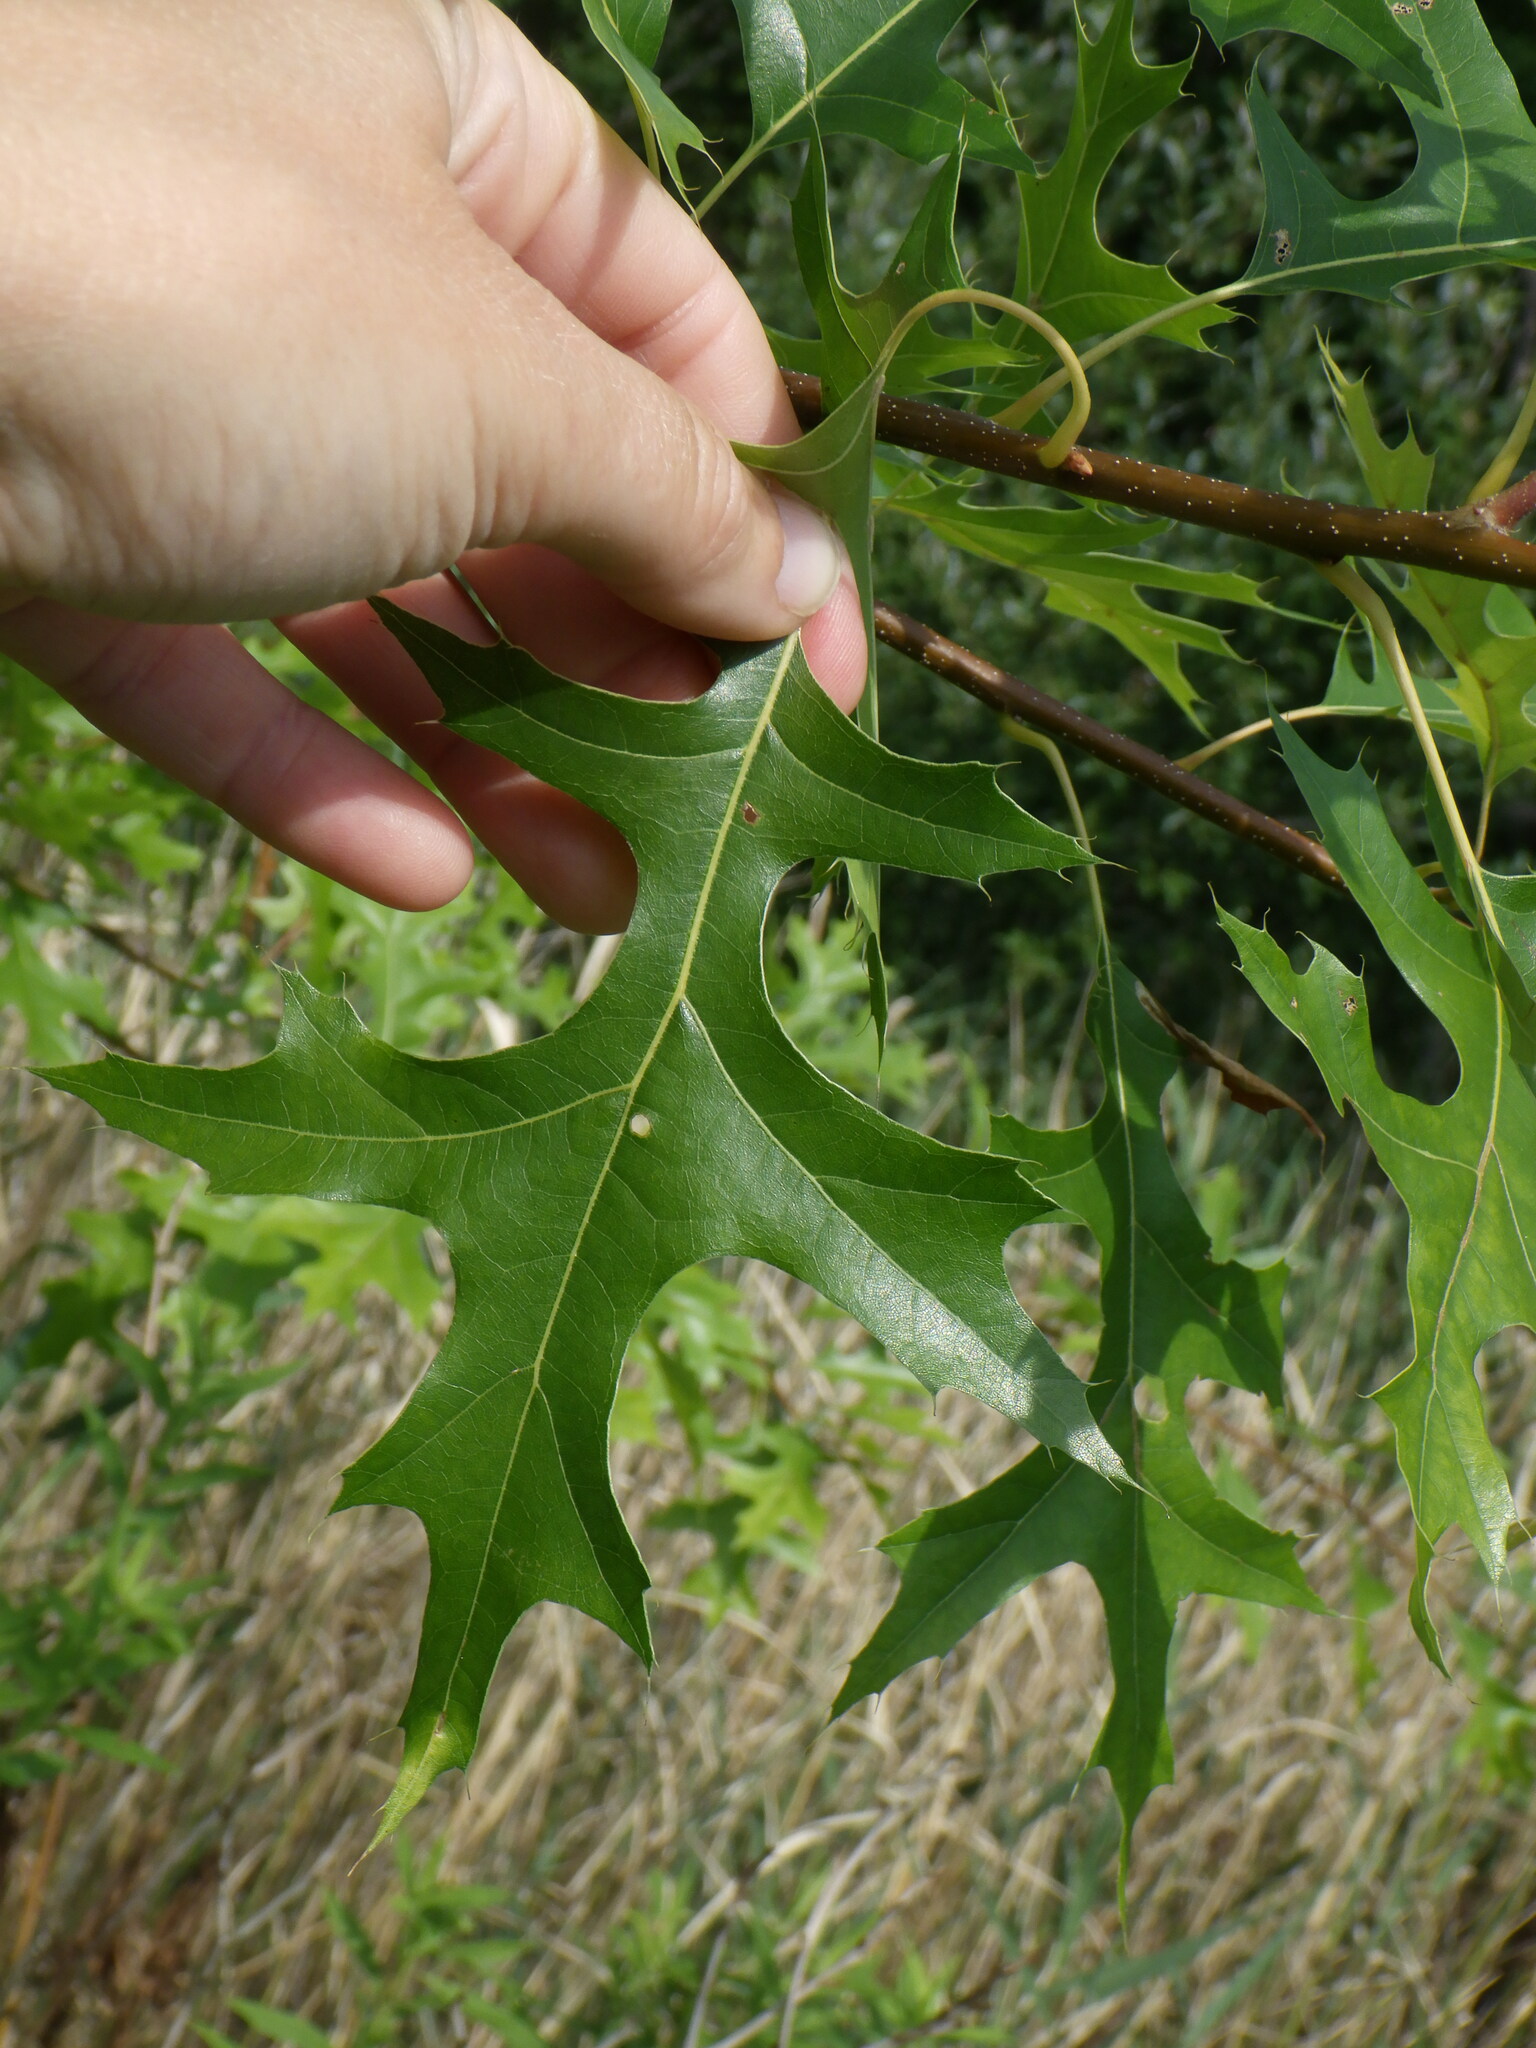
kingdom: Plantae
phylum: Tracheophyta
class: Magnoliopsida
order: Fagales
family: Fagaceae
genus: Quercus
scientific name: Quercus palustris
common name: Pin oak
